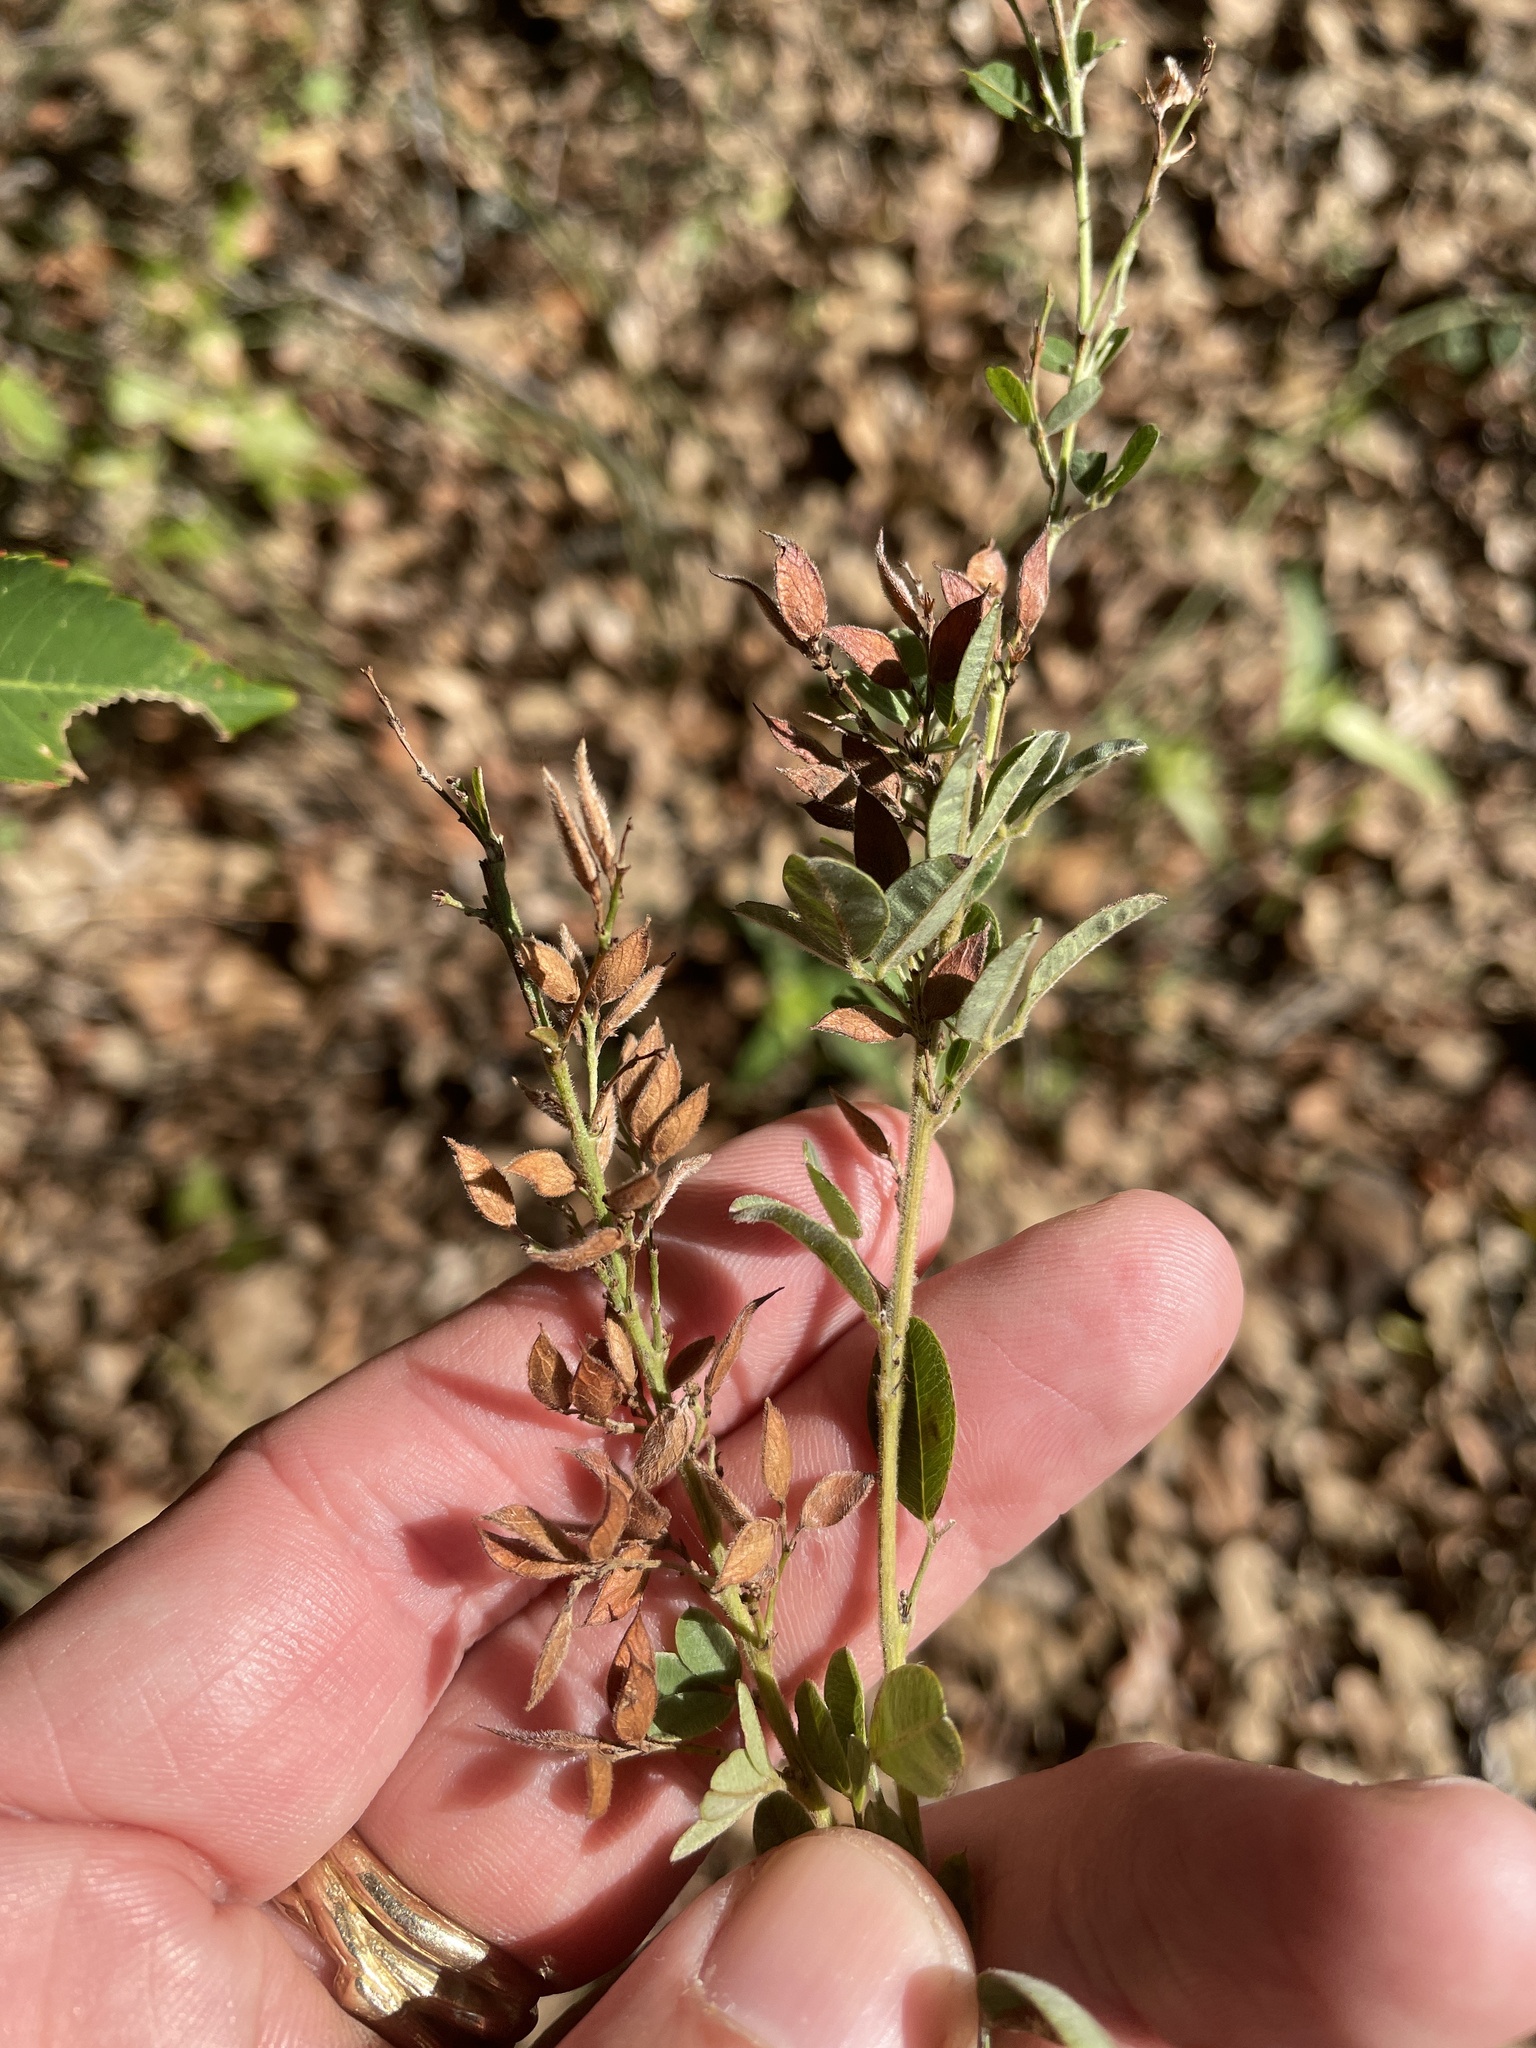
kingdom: Plantae
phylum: Tracheophyta
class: Magnoliopsida
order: Fabales
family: Fabaceae
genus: Lespedeza
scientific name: Lespedeza stuevei
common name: Tall bush-clover
